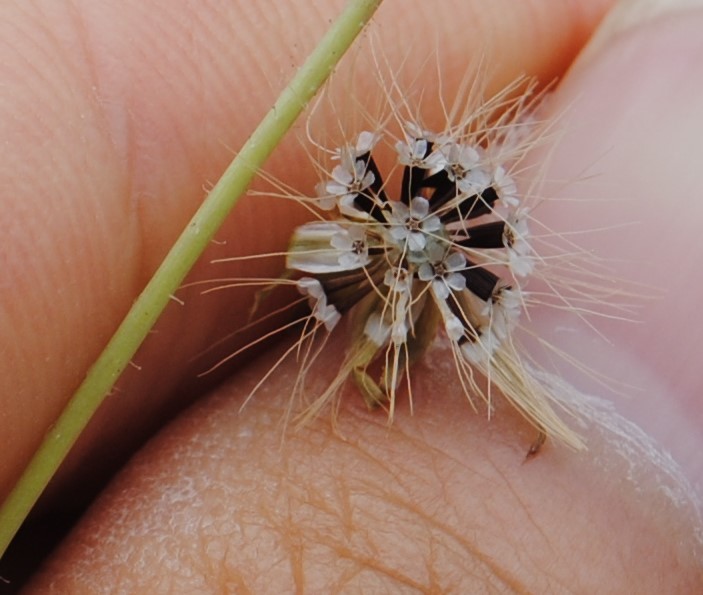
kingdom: Plantae
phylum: Tracheophyta
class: Magnoliopsida
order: Asterales
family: Asteraceae
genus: Krigia
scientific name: Krigia virginica
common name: Virginia dwarf-dandelion
